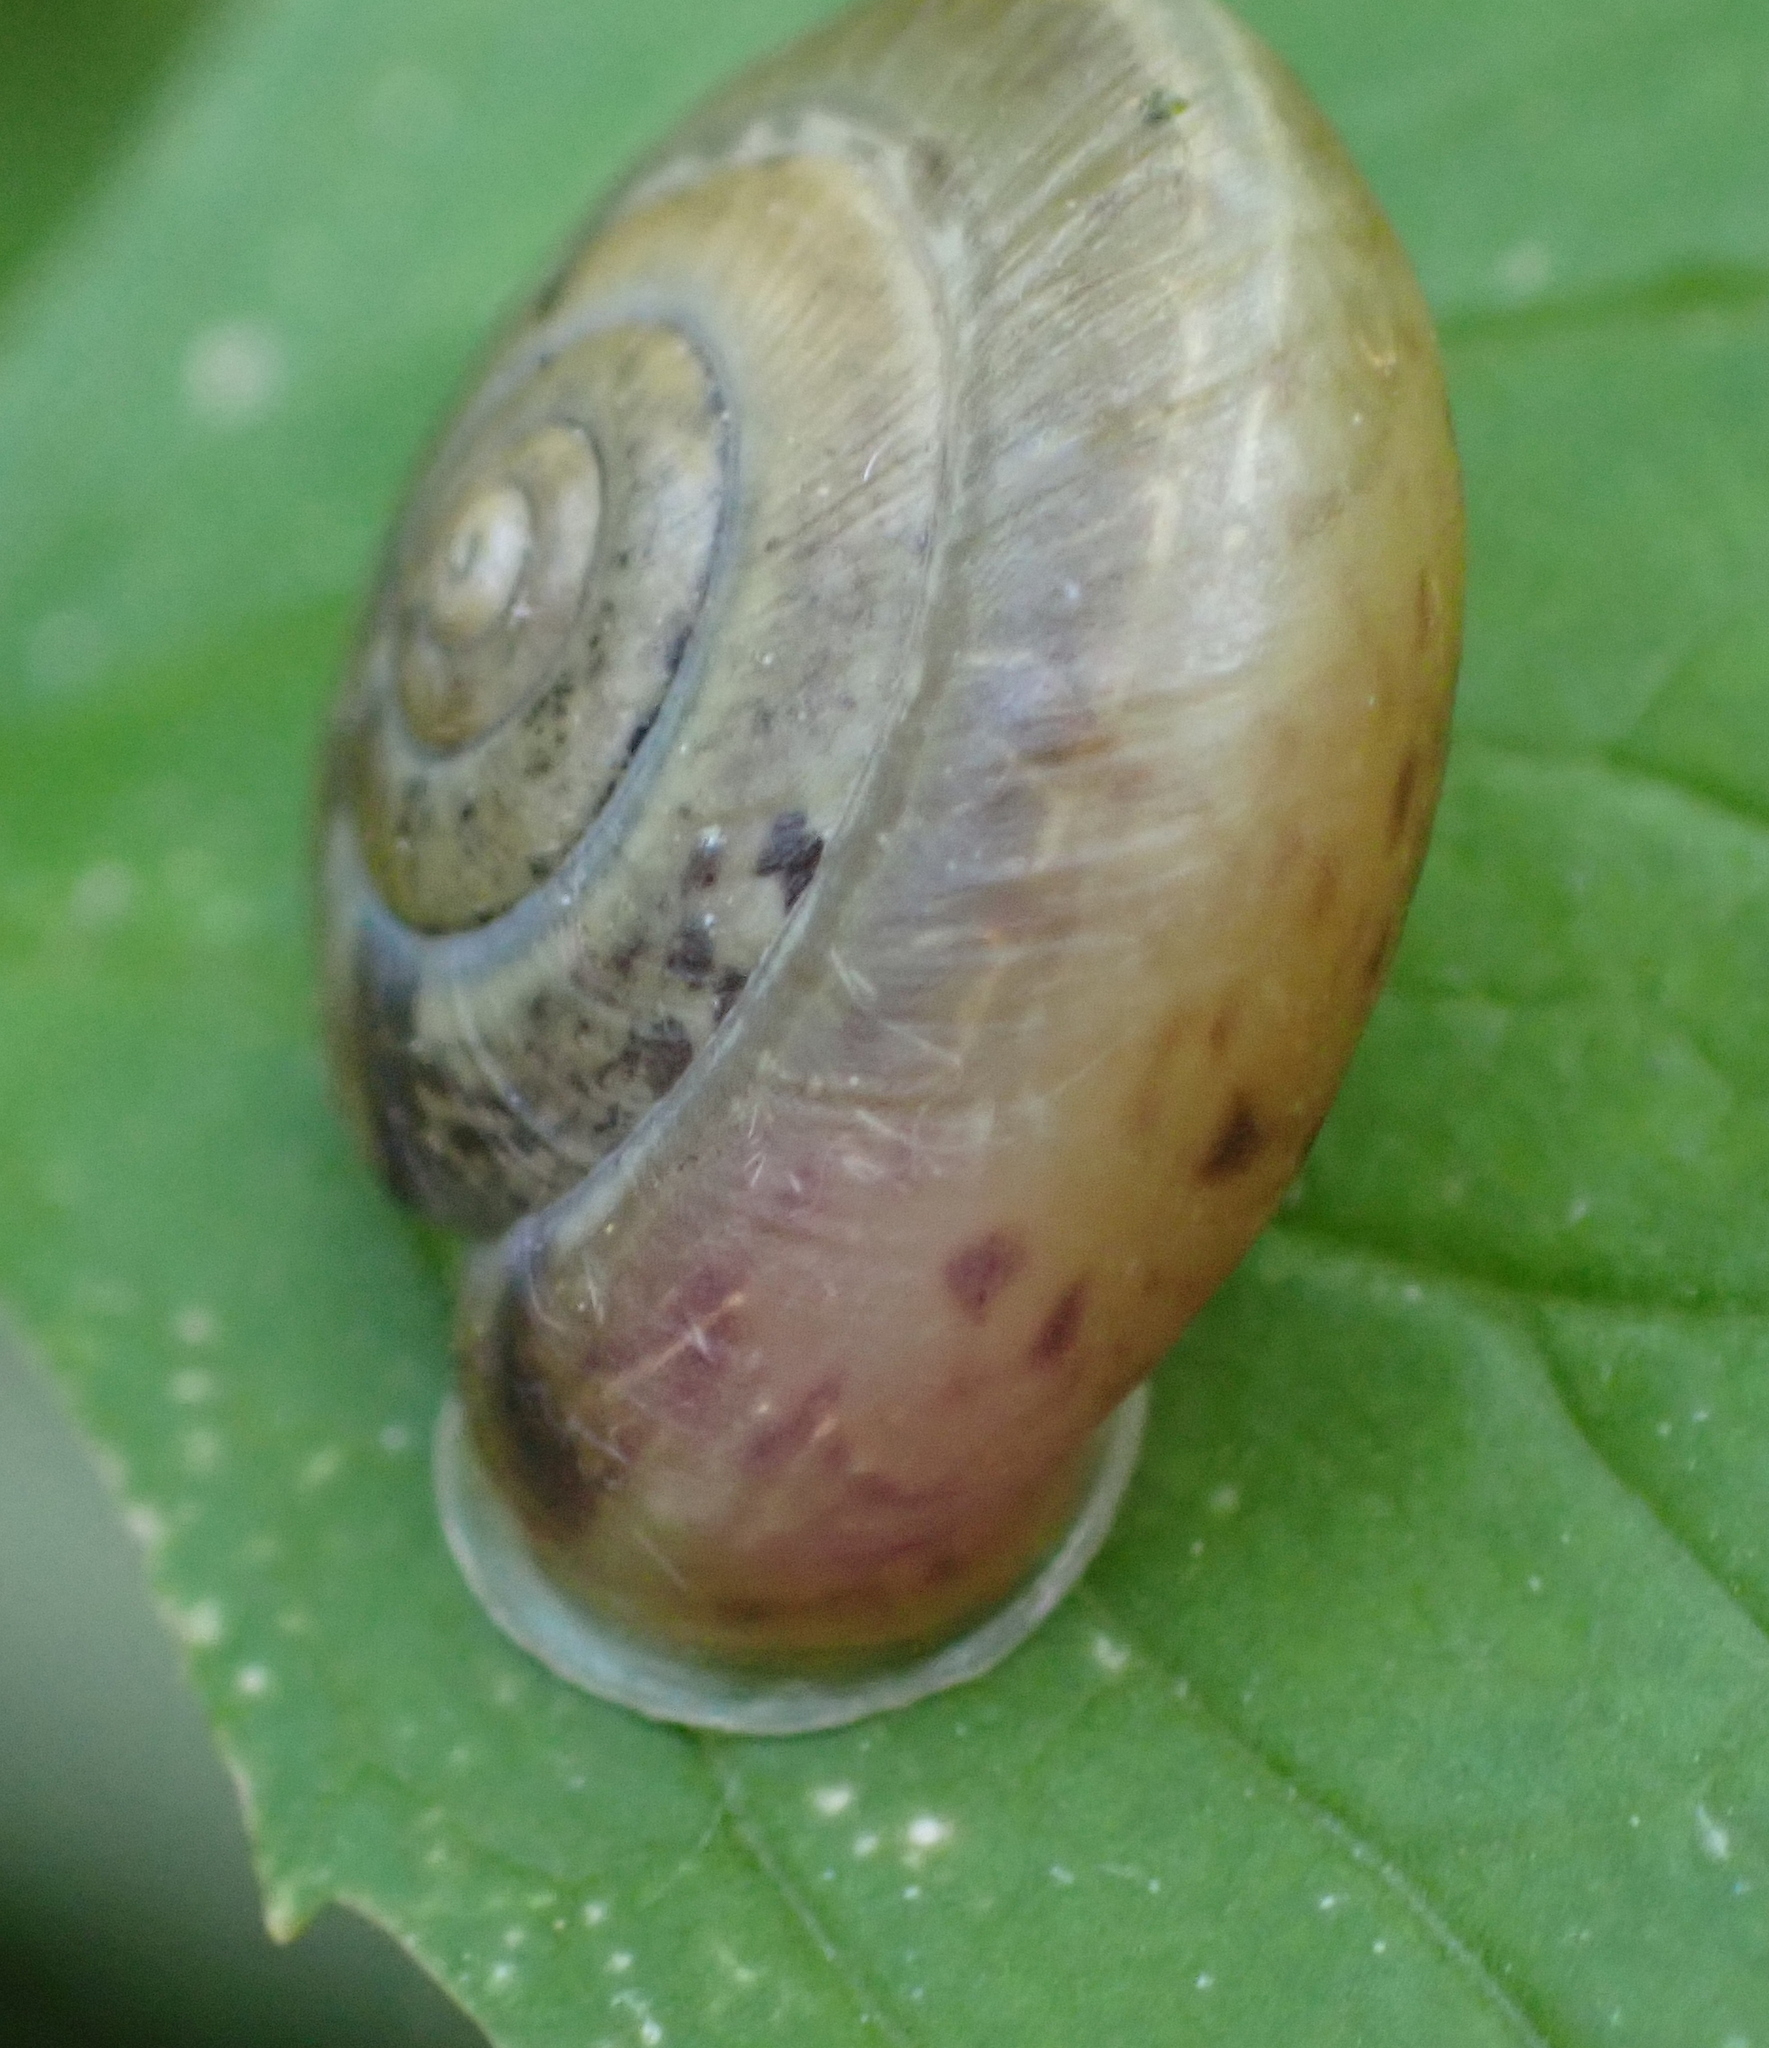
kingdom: Animalia
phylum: Mollusca
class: Gastropoda
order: Stylommatophora
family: Hygromiidae
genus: Urticicola
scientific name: Urticicola umbrosus
